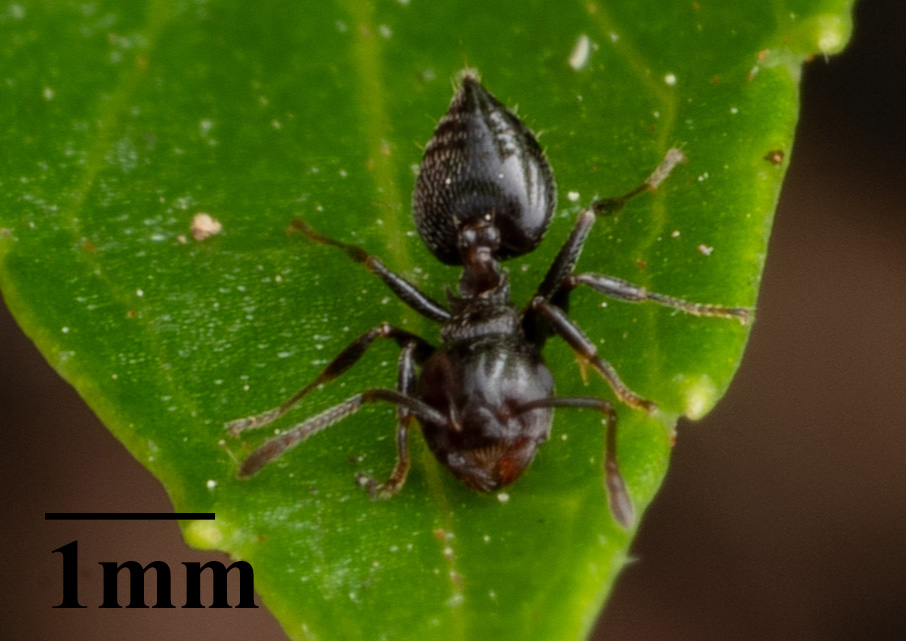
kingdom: Animalia
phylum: Arthropoda
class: Insecta
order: Hymenoptera
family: Formicidae
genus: Crematogaster
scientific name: Crematogaster ashmeadi
